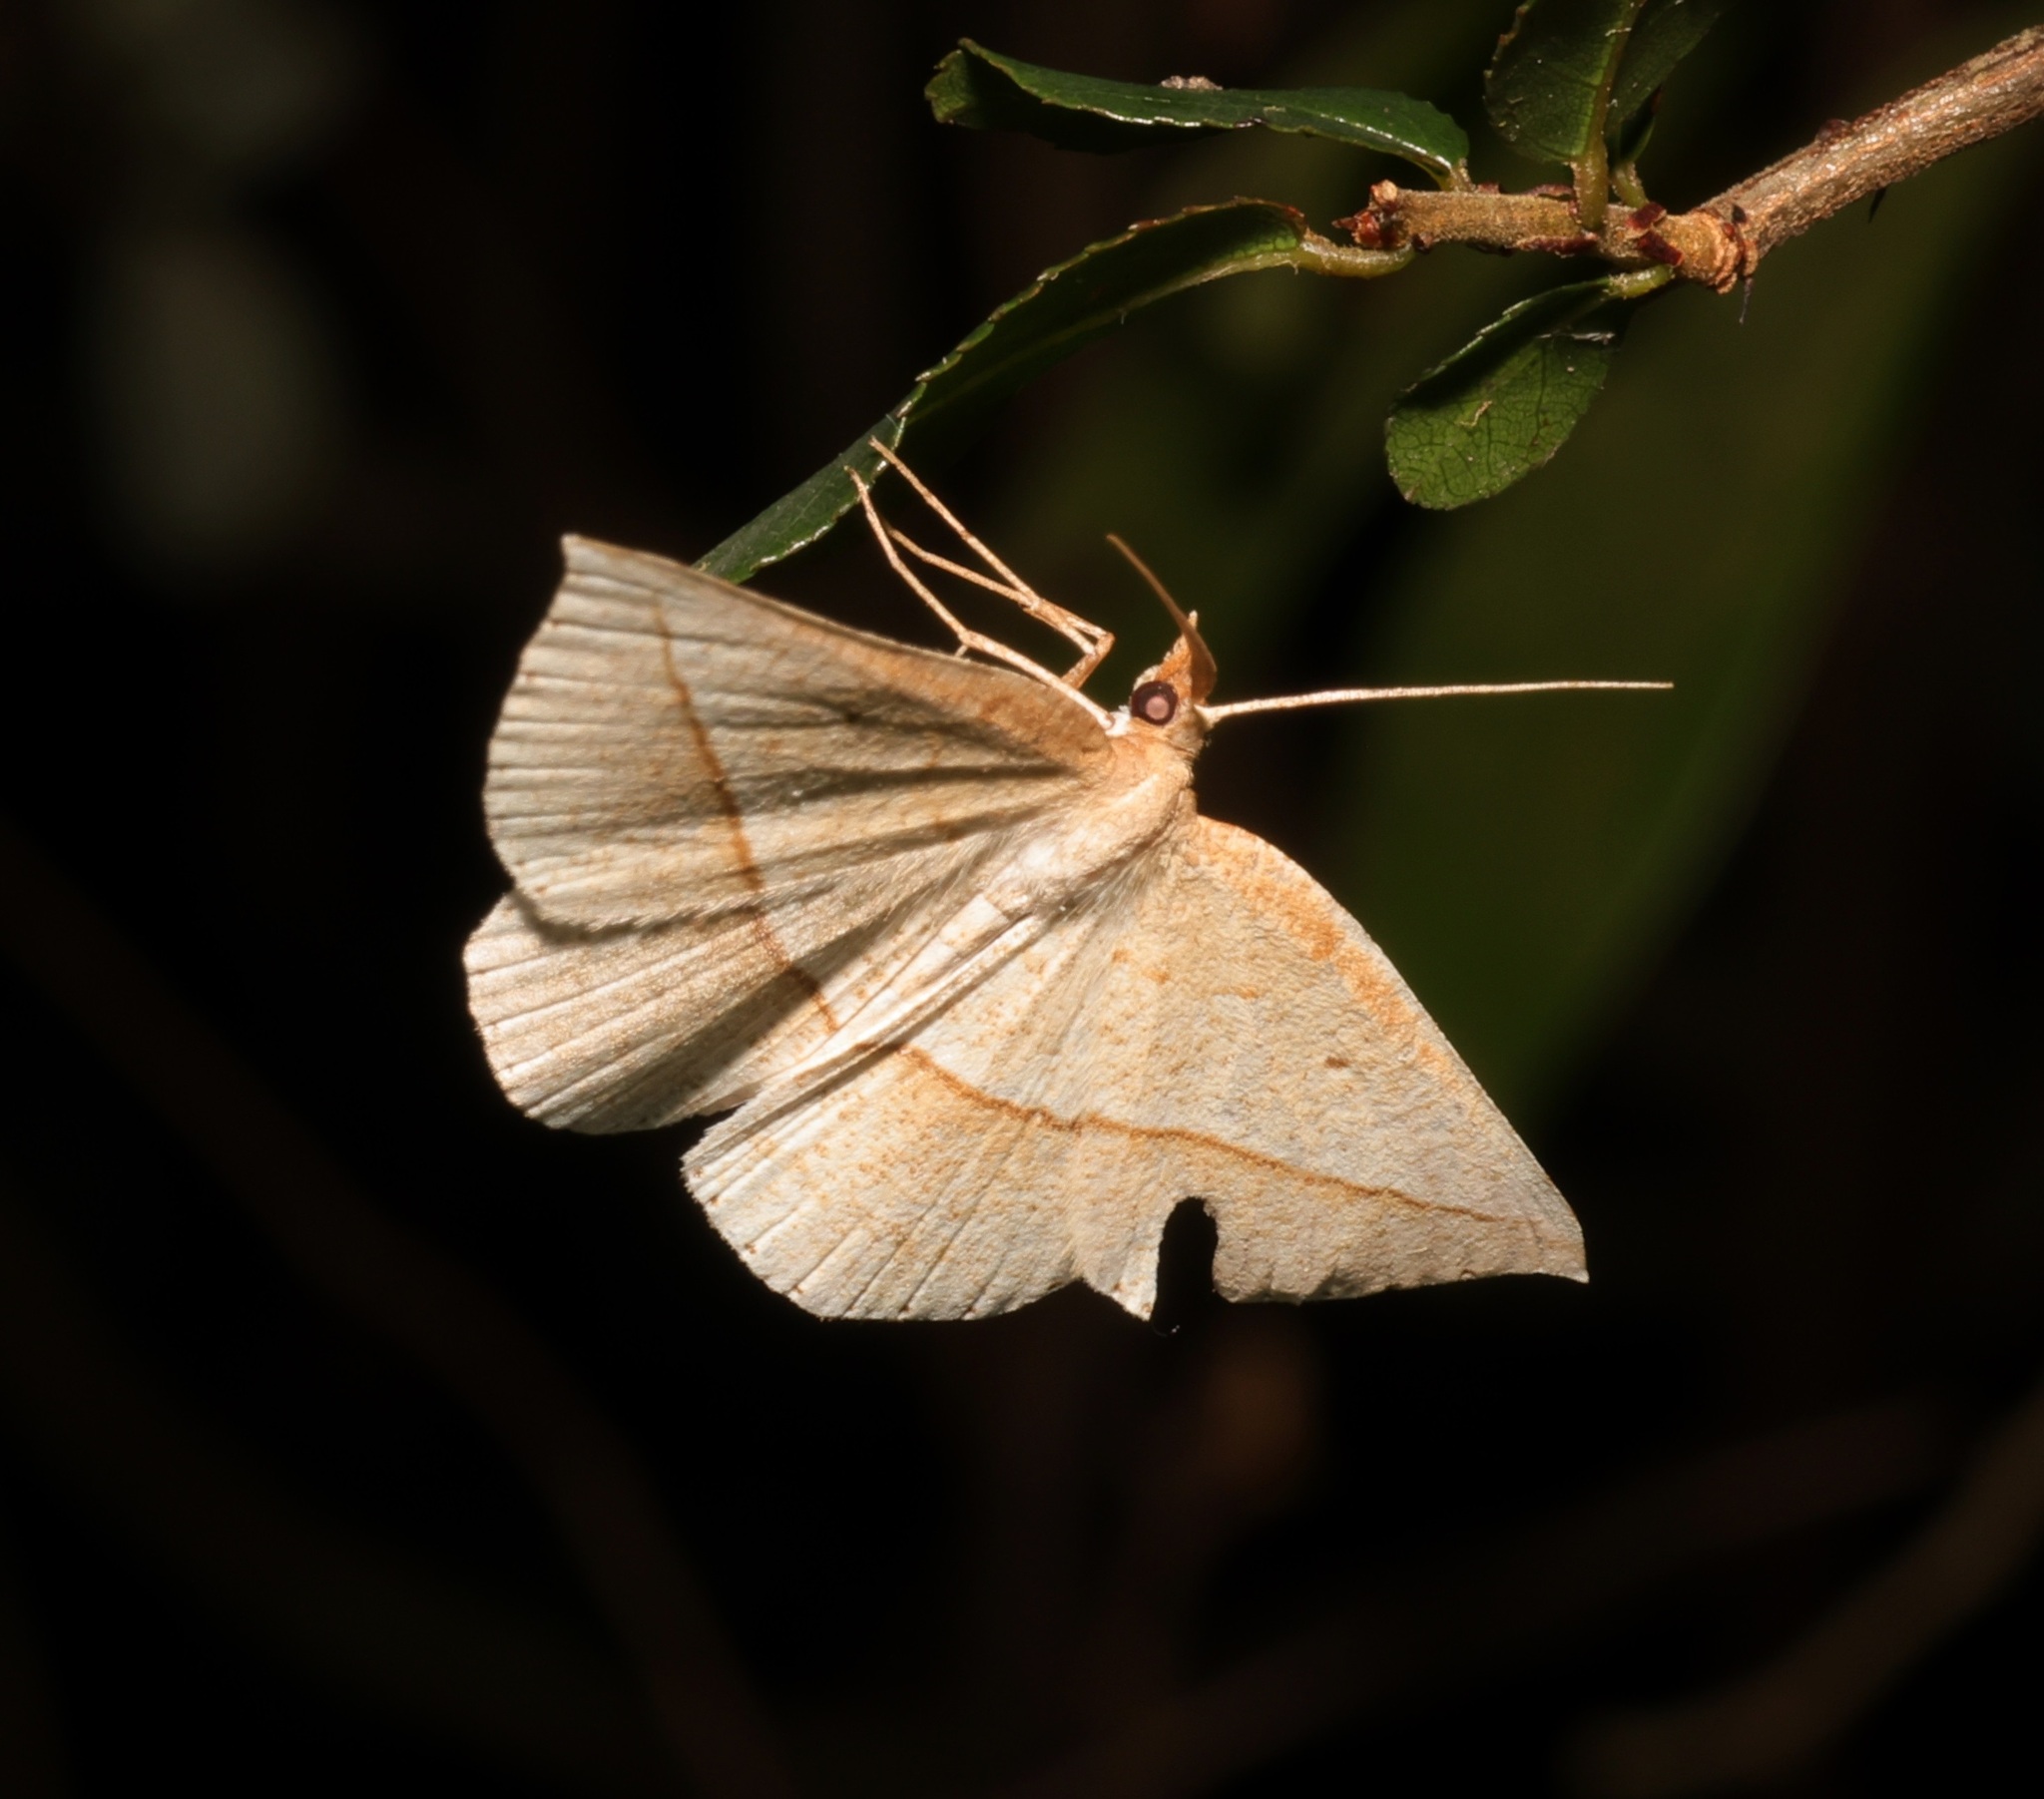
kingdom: Animalia
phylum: Arthropoda
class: Insecta
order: Lepidoptera
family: Geometridae
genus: Heteralex
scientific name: Heteralex unilinea
